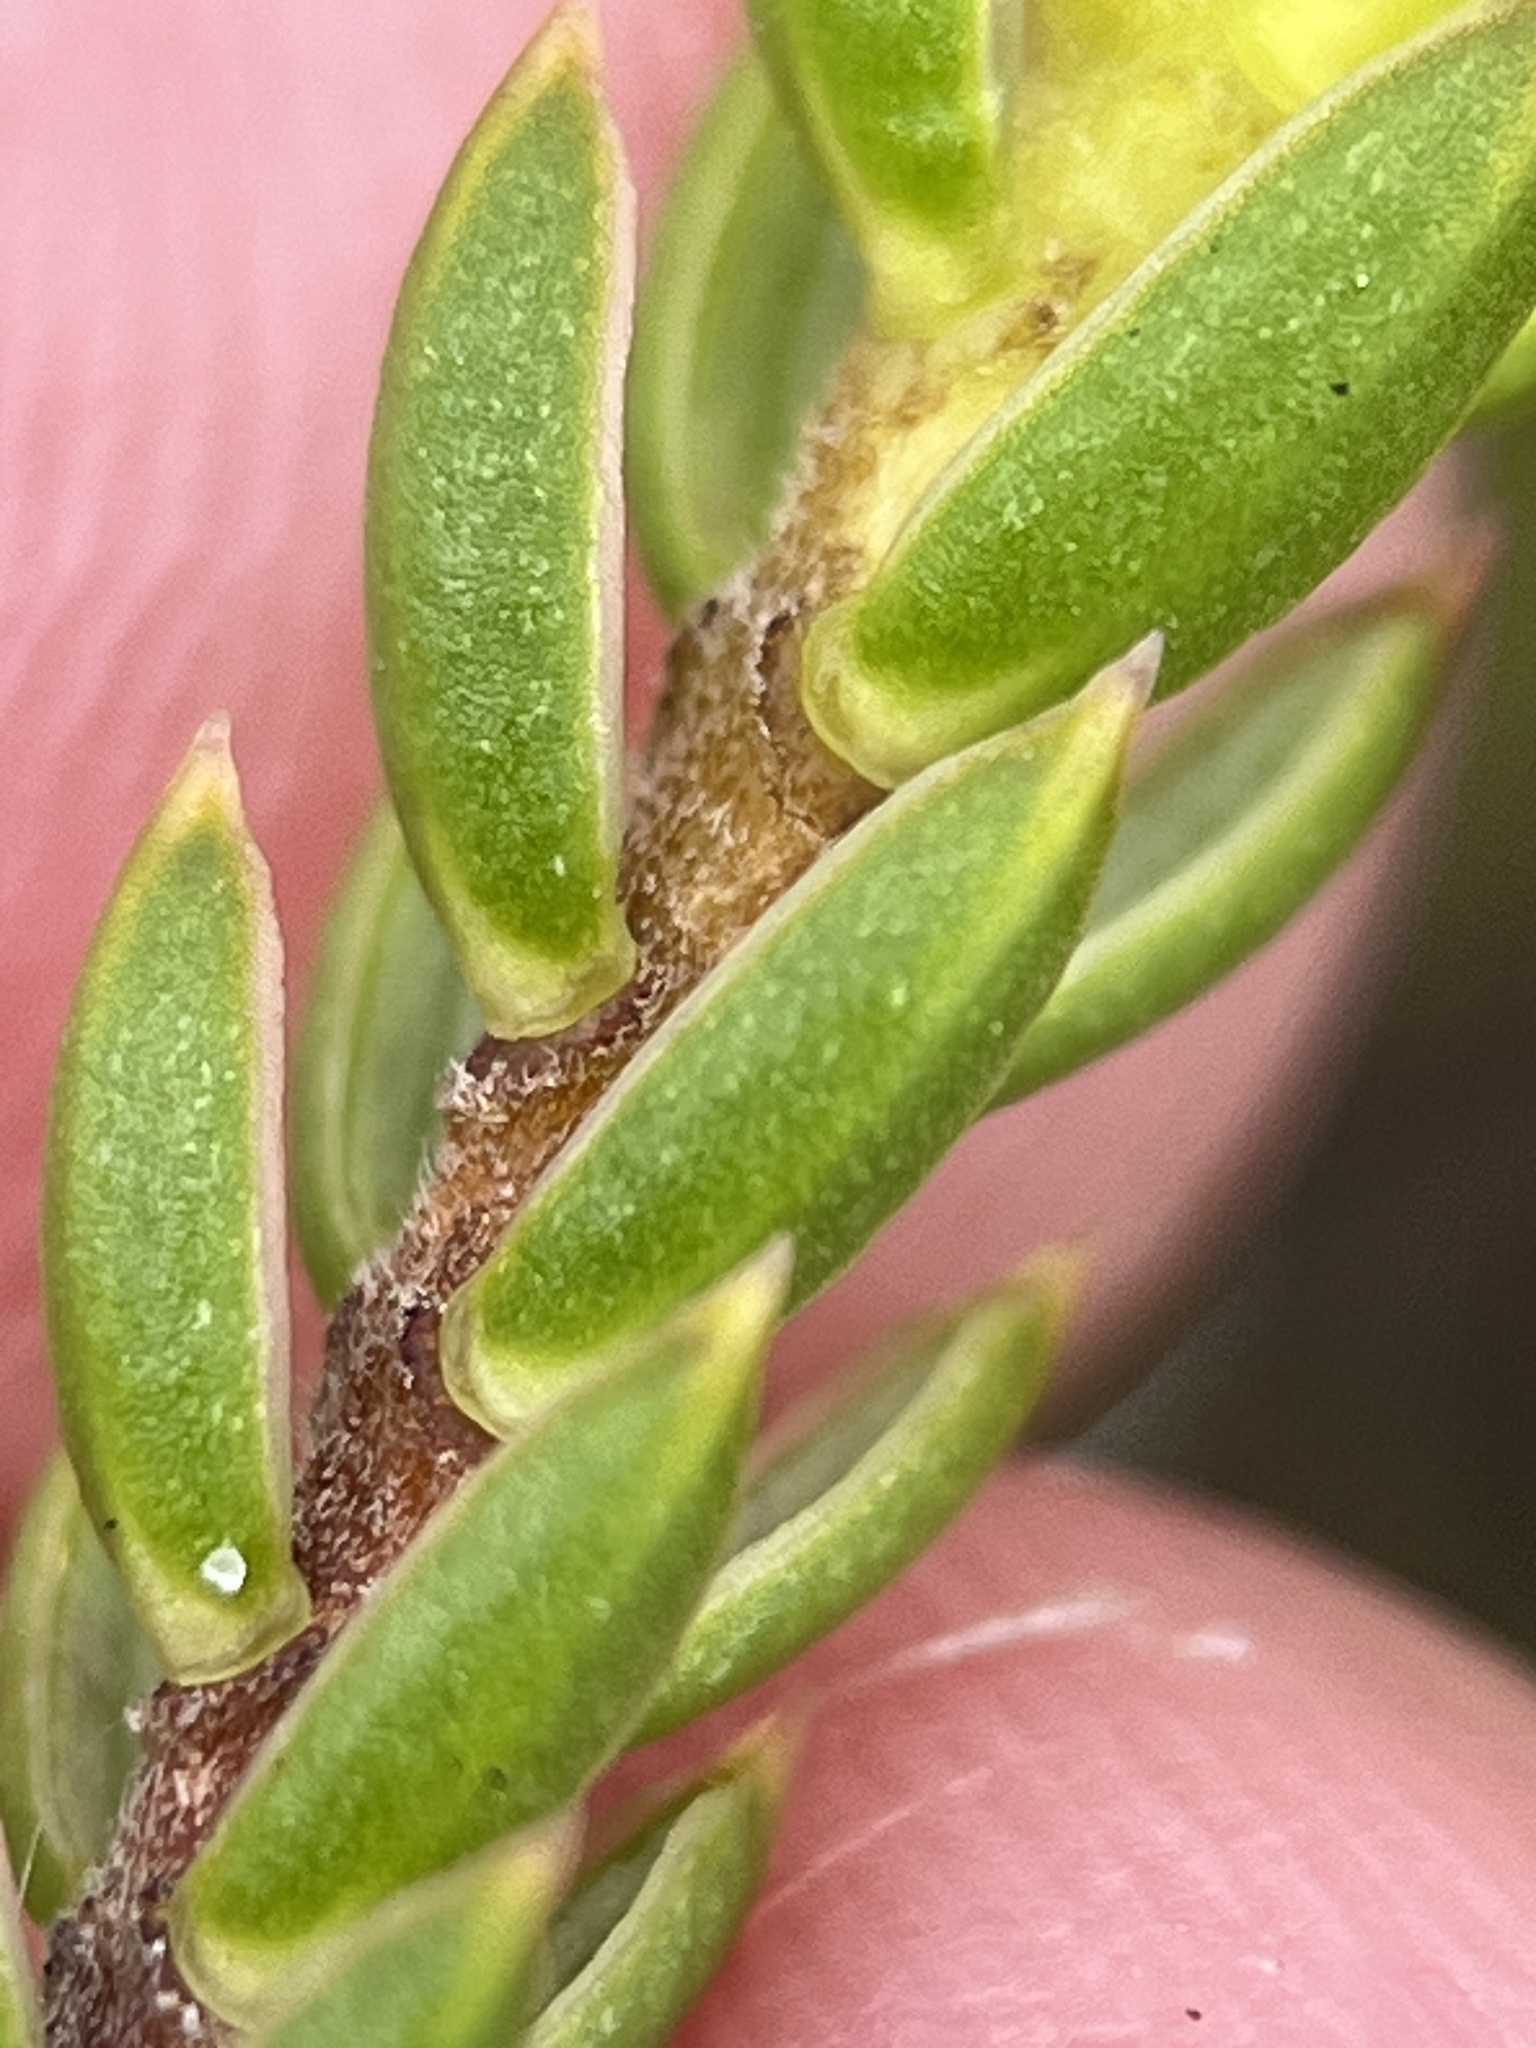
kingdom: Plantae
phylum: Tracheophyta
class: Magnoliopsida
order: Malvales
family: Thymelaeaceae
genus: Lachnaea
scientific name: Lachnaea grandiflora
